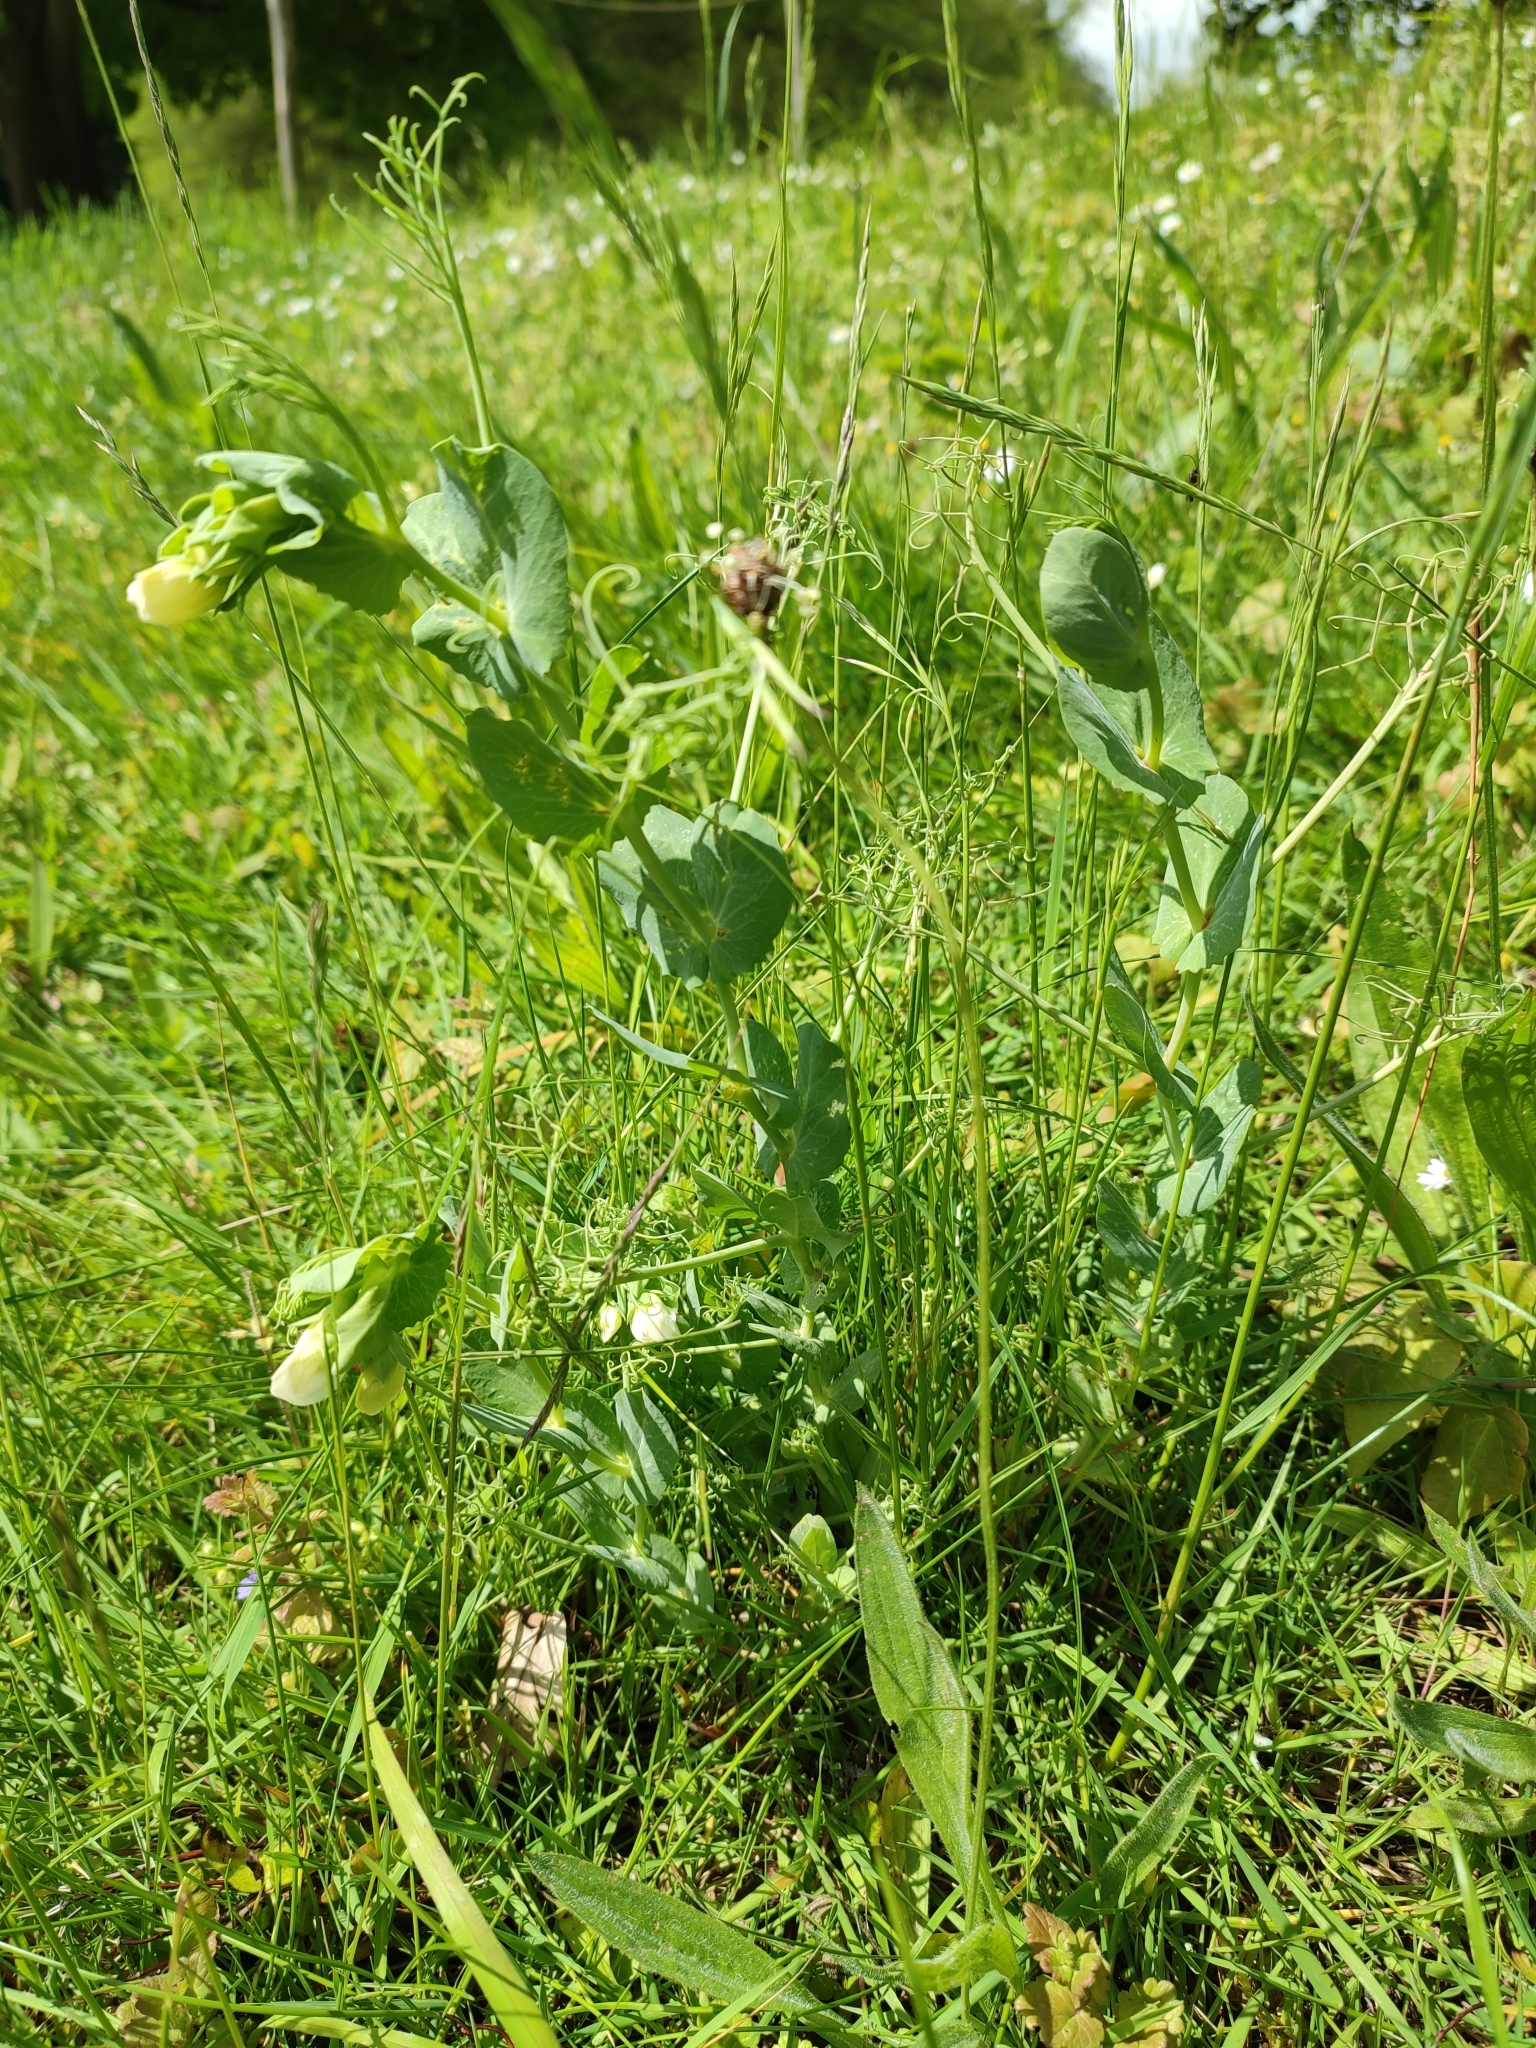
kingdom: Plantae
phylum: Tracheophyta
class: Magnoliopsida
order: Fabales
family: Fabaceae
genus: Lathyrus
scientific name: Lathyrus oleraceus
